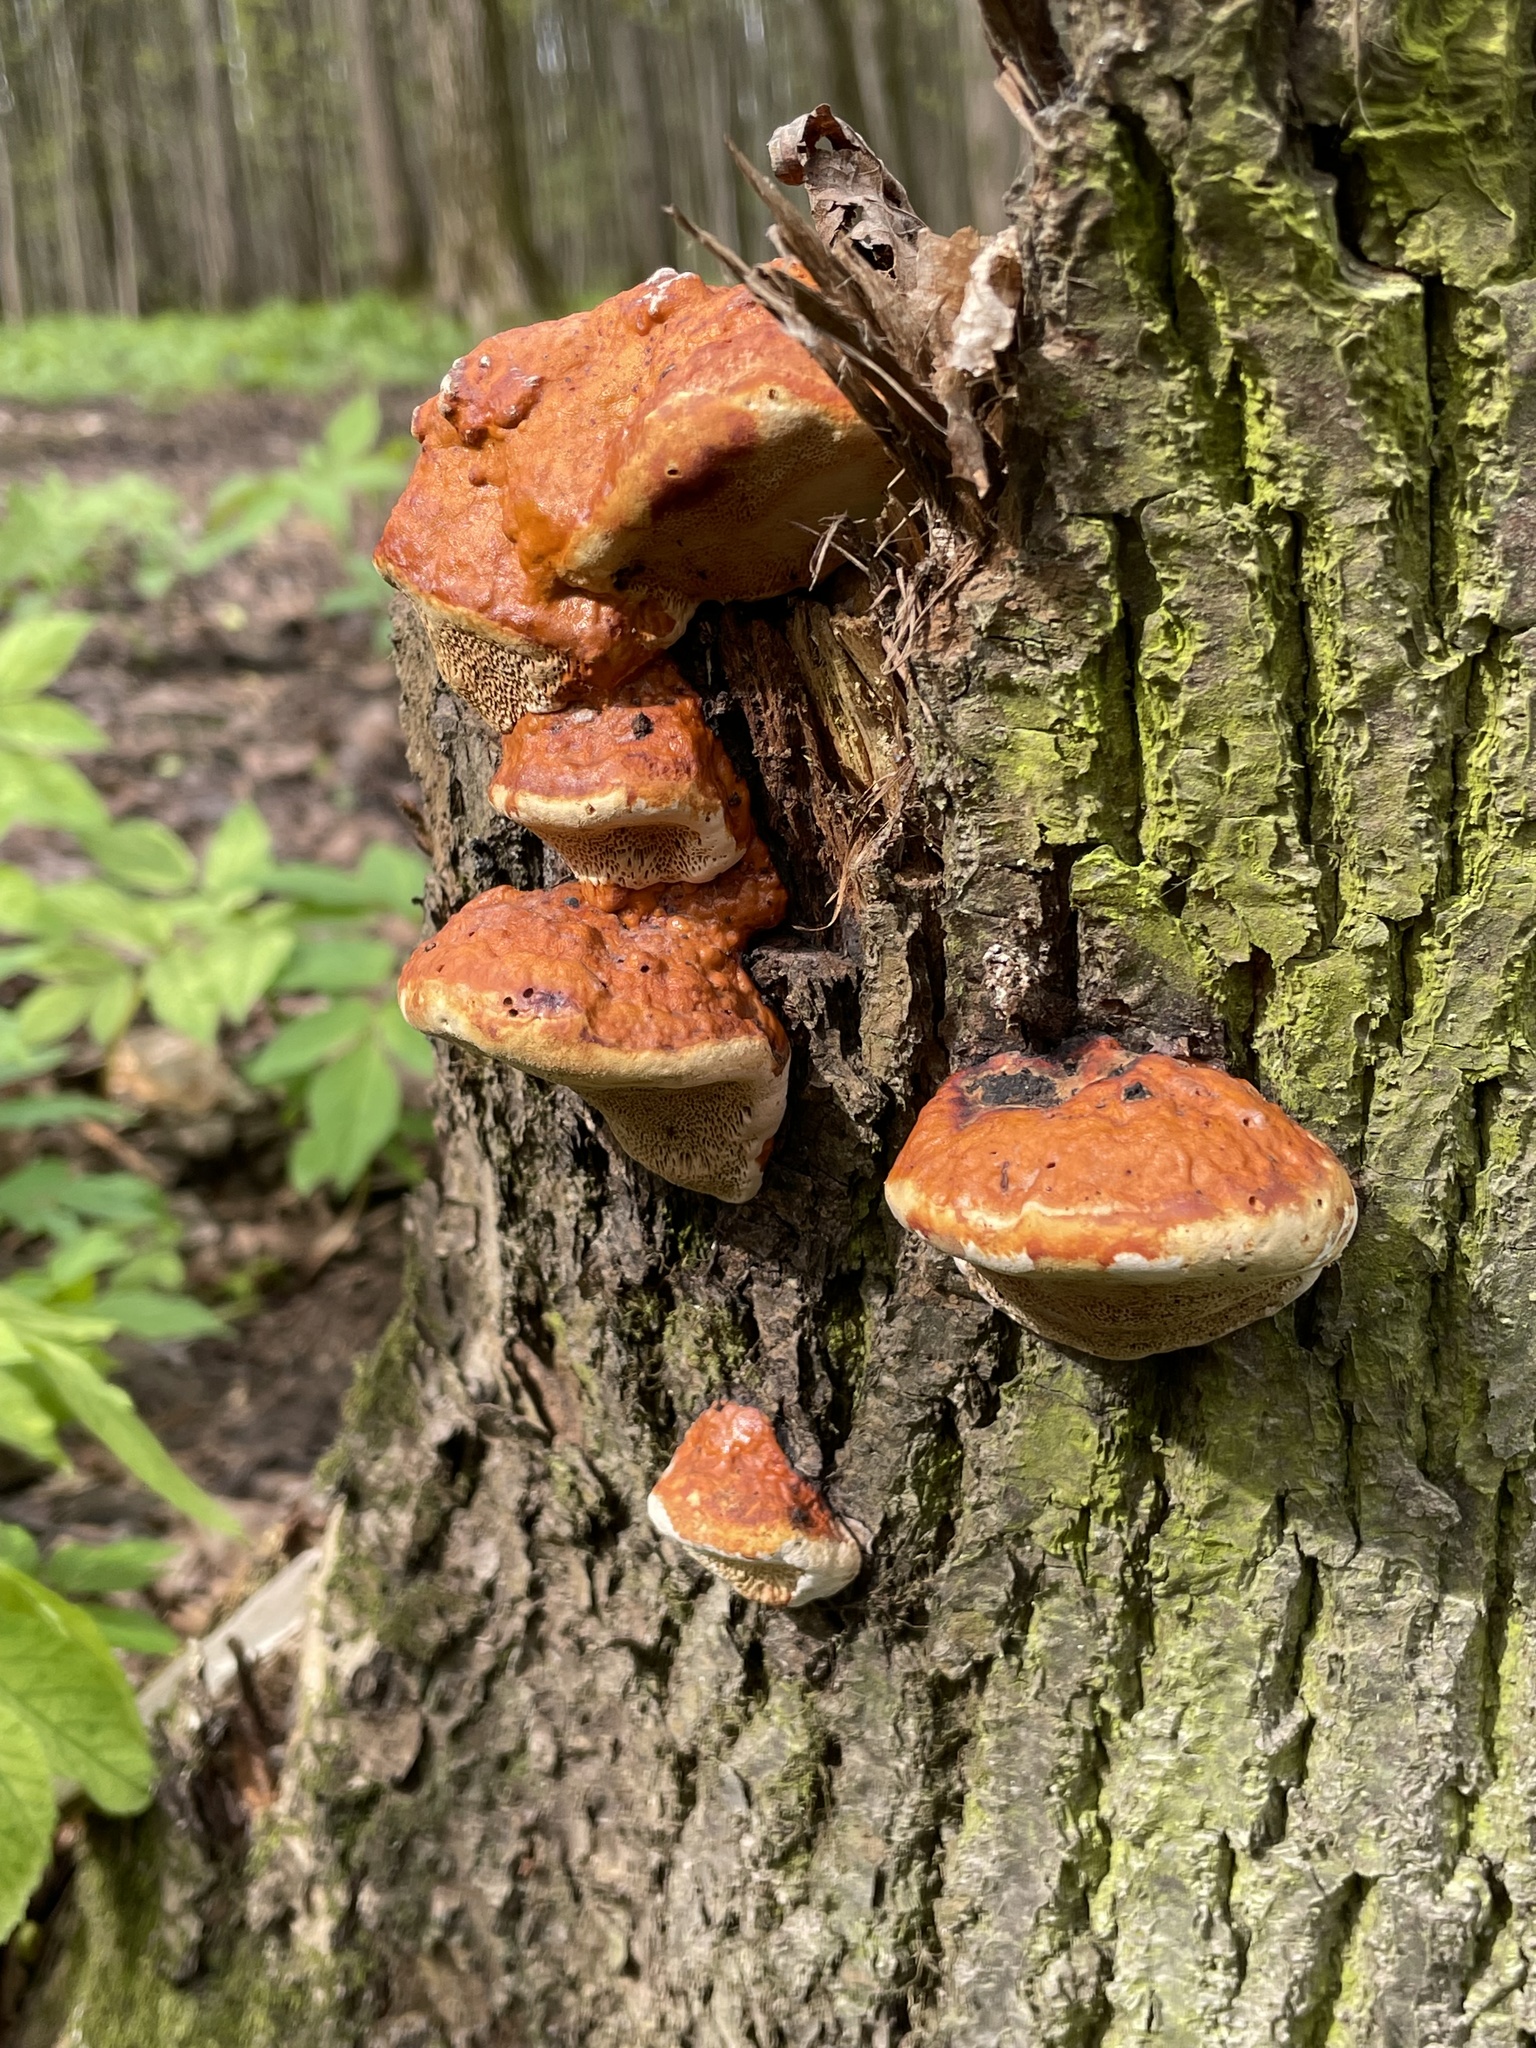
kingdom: Fungi
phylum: Basidiomycota
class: Agaricomycetes
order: Polyporales
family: Fomitopsidaceae
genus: Fomitopsis
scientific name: Fomitopsis pinicola
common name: Red-belted bracket
